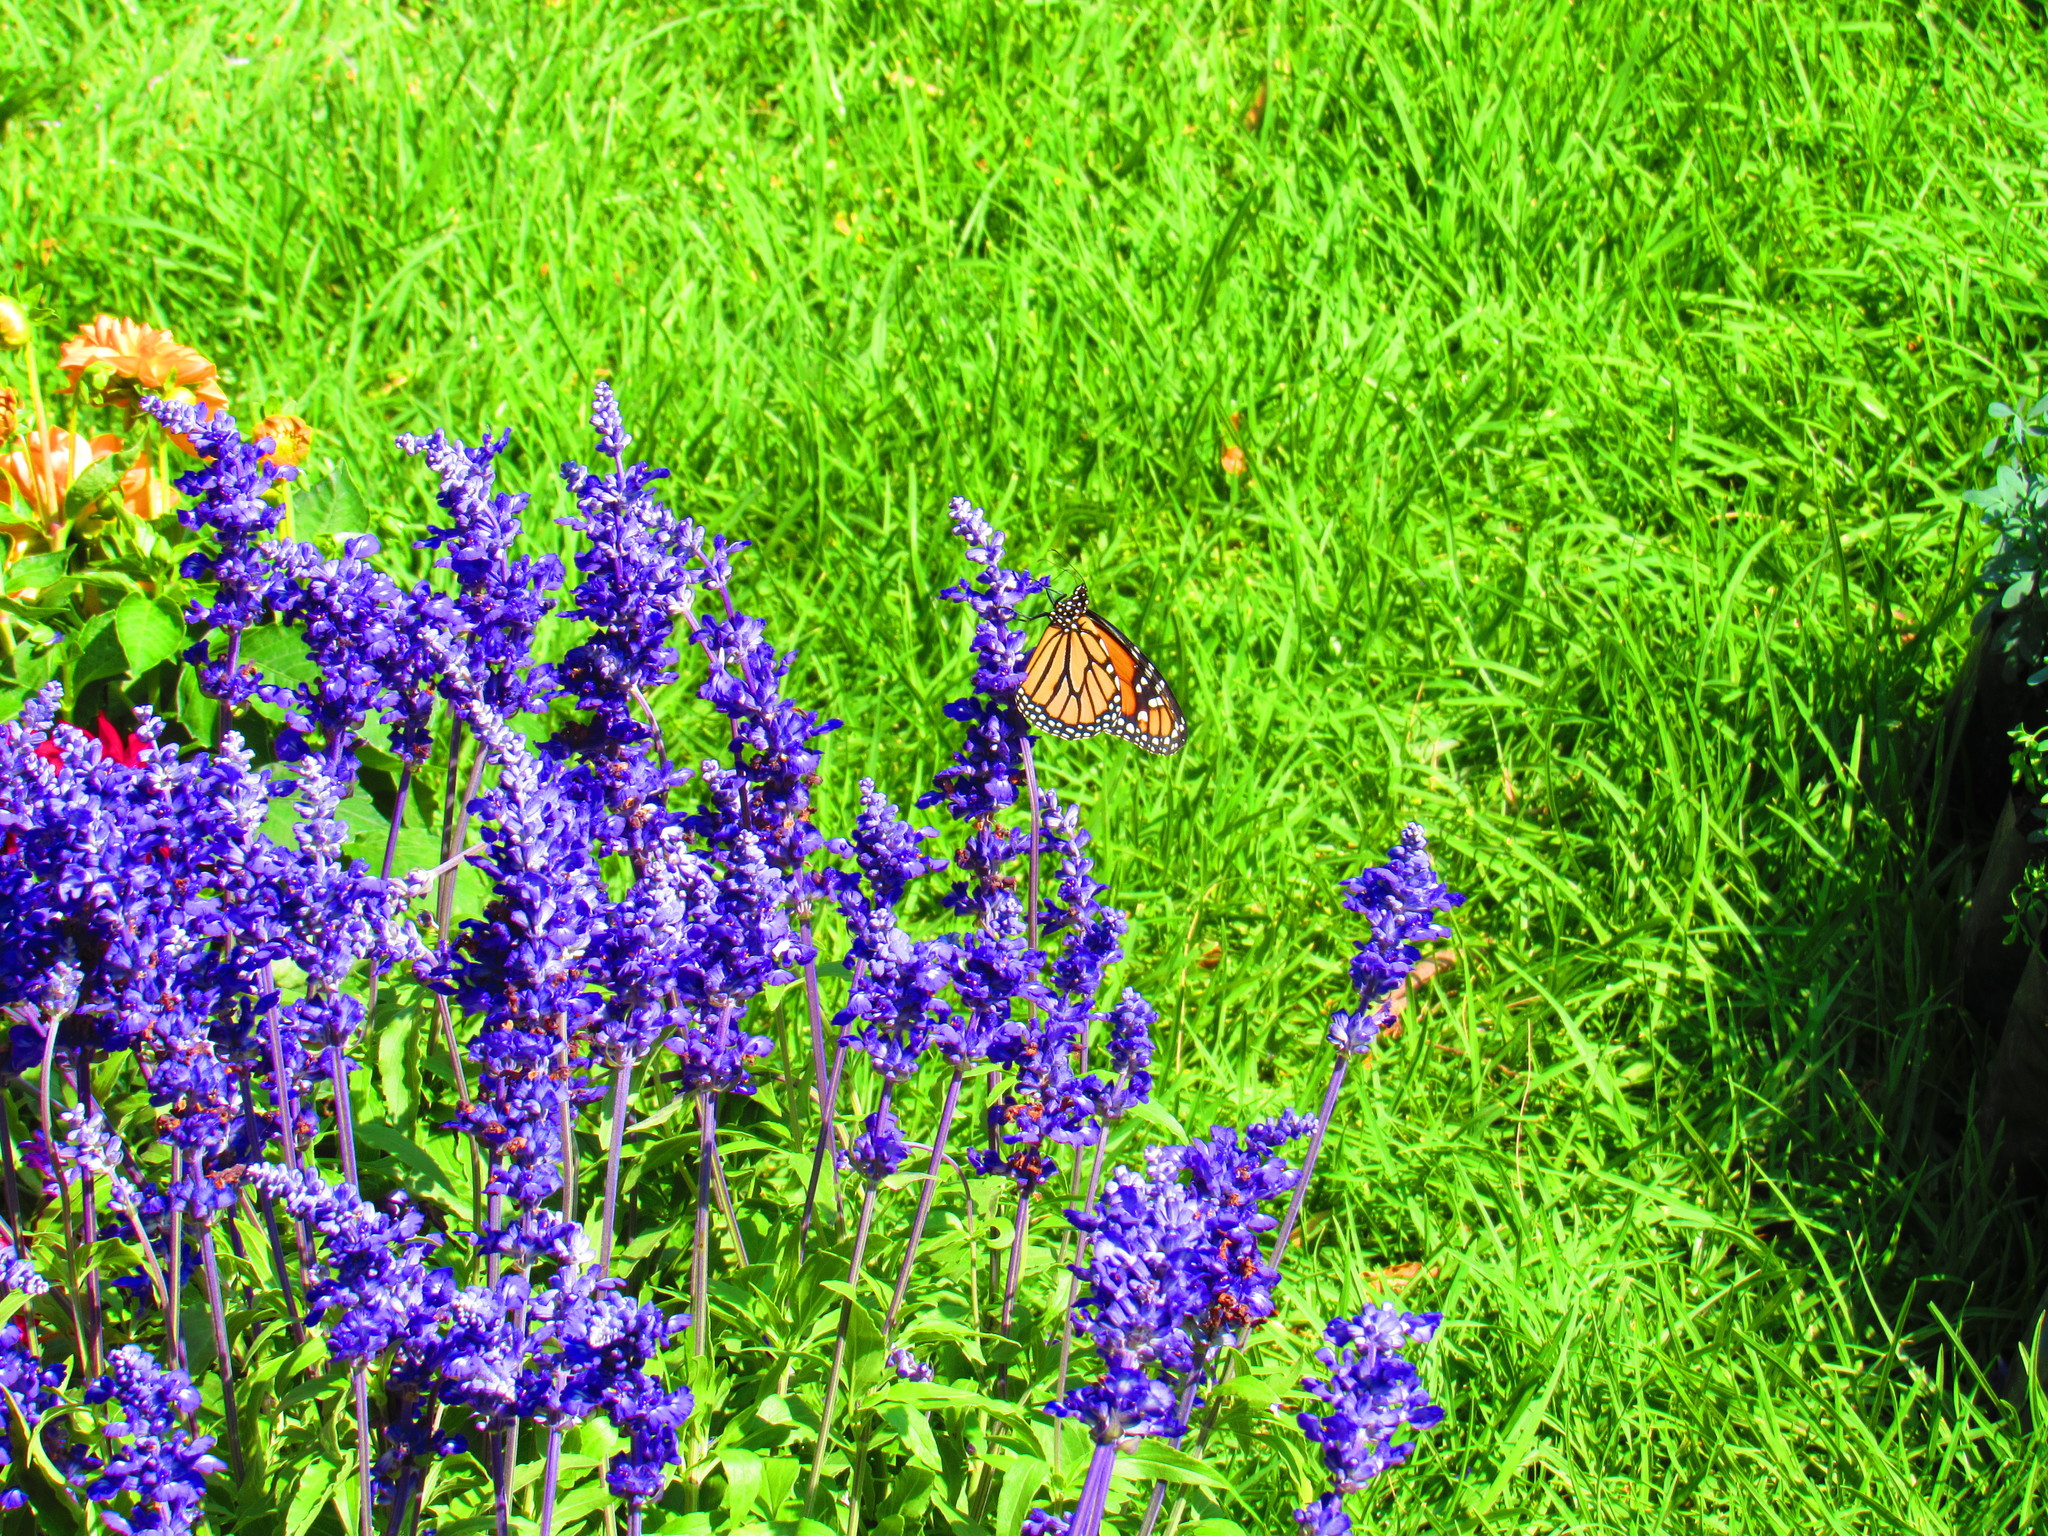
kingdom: Animalia
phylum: Arthropoda
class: Insecta
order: Lepidoptera
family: Nymphalidae
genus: Danaus
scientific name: Danaus plexippus
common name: Monarch
